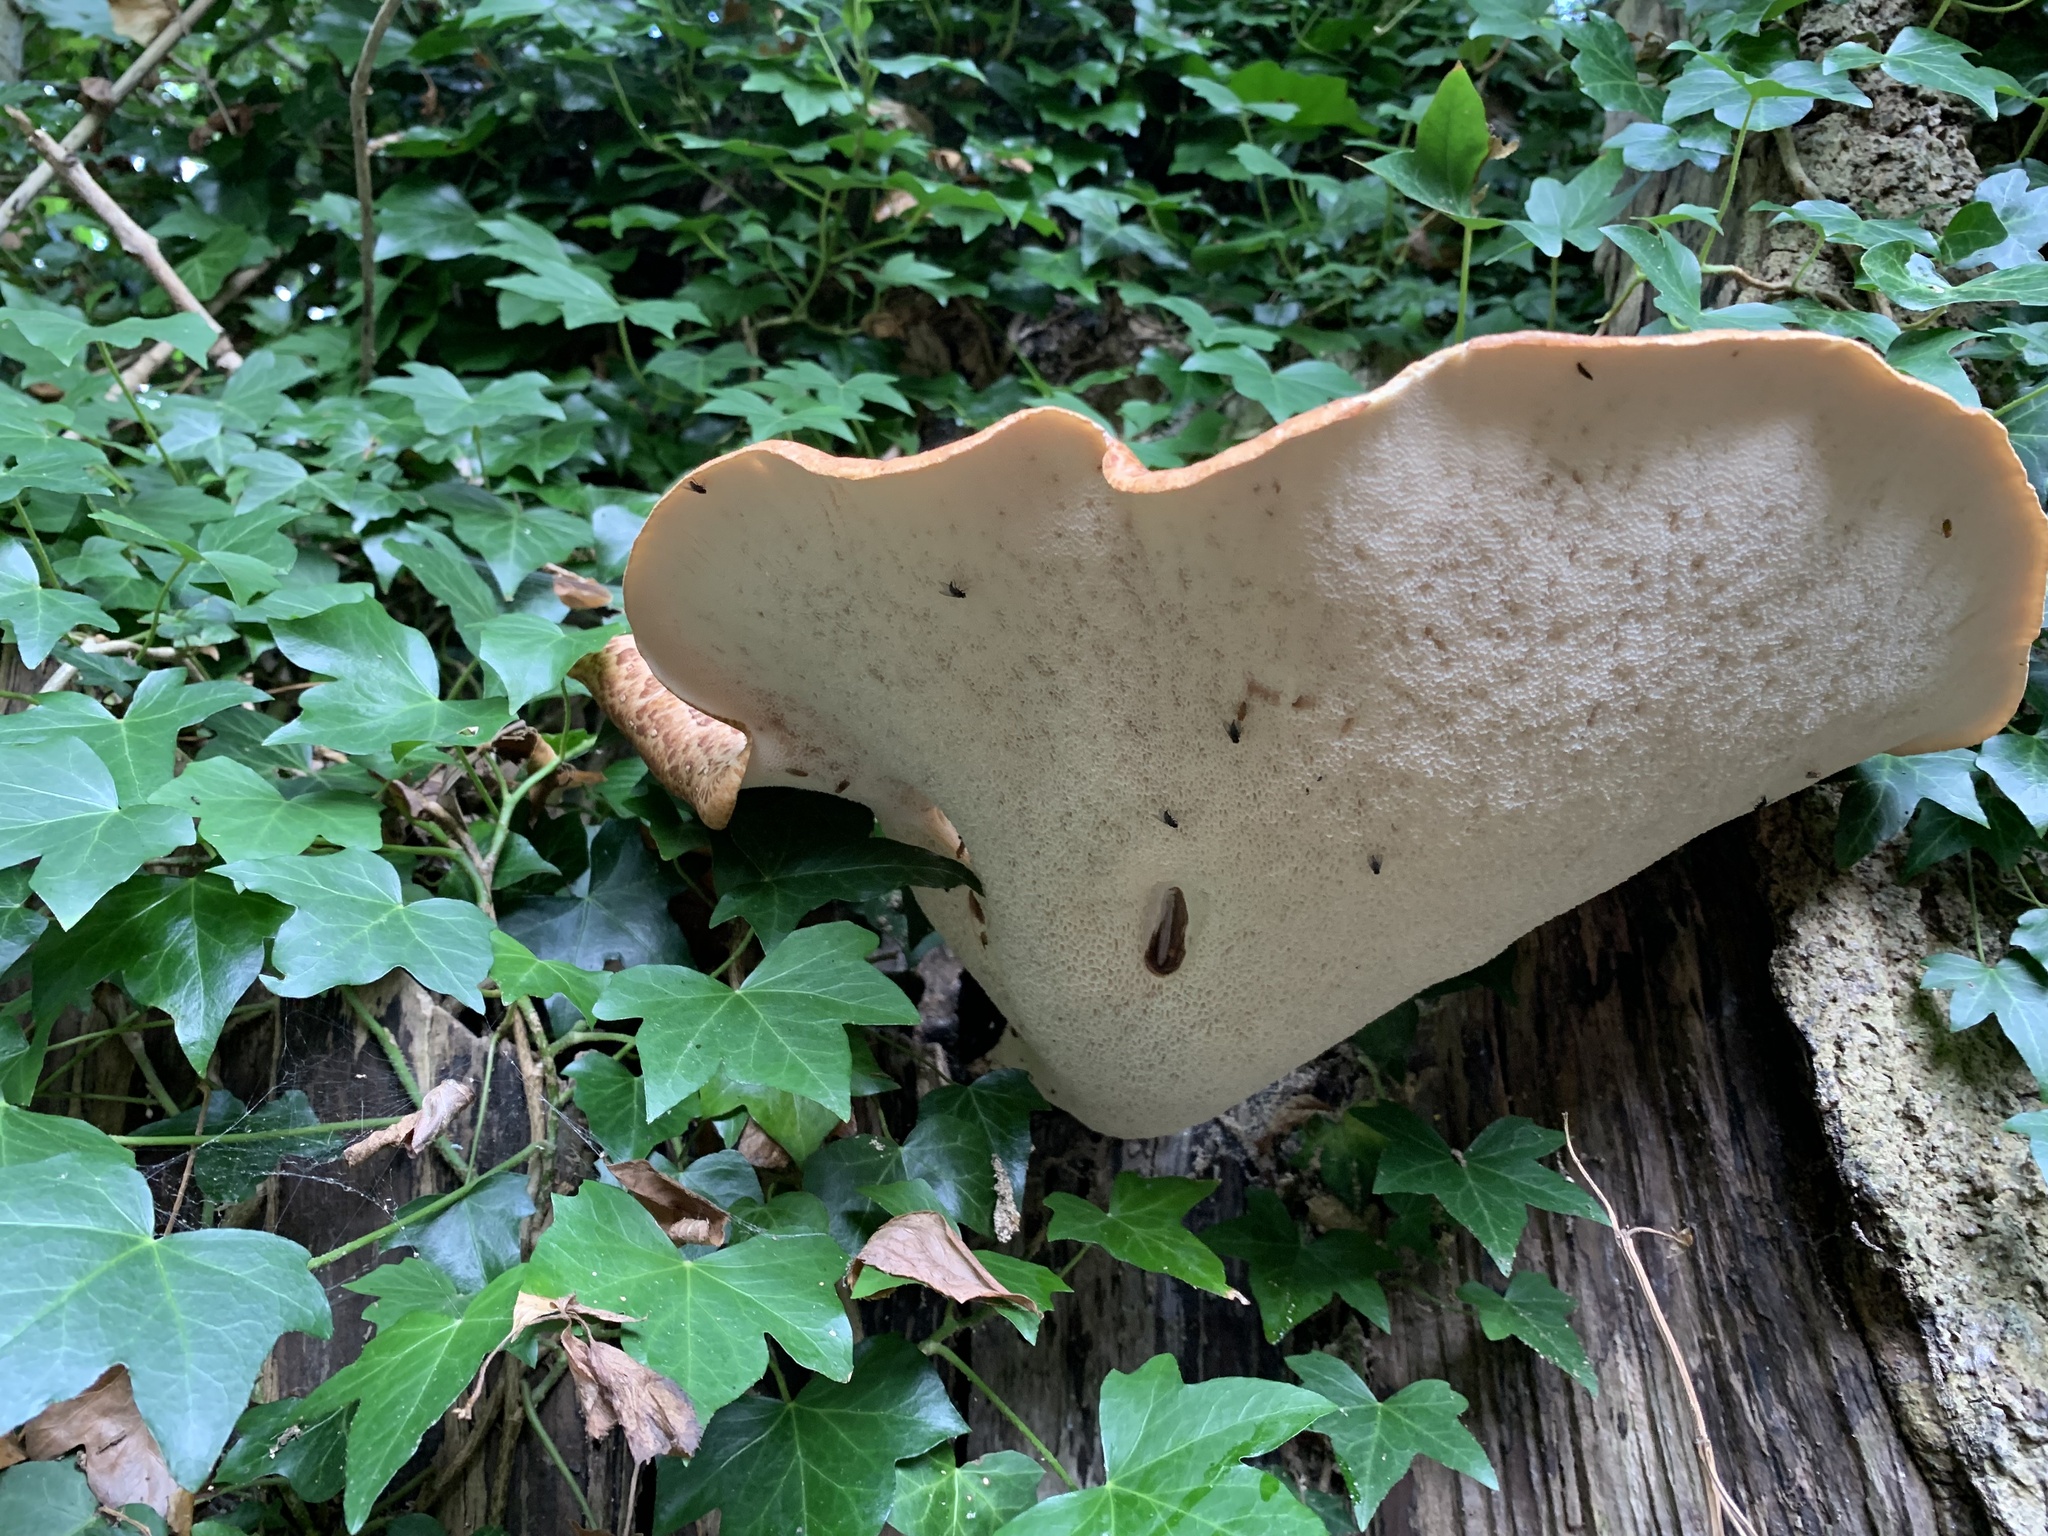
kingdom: Fungi
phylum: Basidiomycota
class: Agaricomycetes
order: Polyporales
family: Polyporaceae
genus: Cerioporus
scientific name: Cerioporus squamosus
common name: Dryad's saddle
